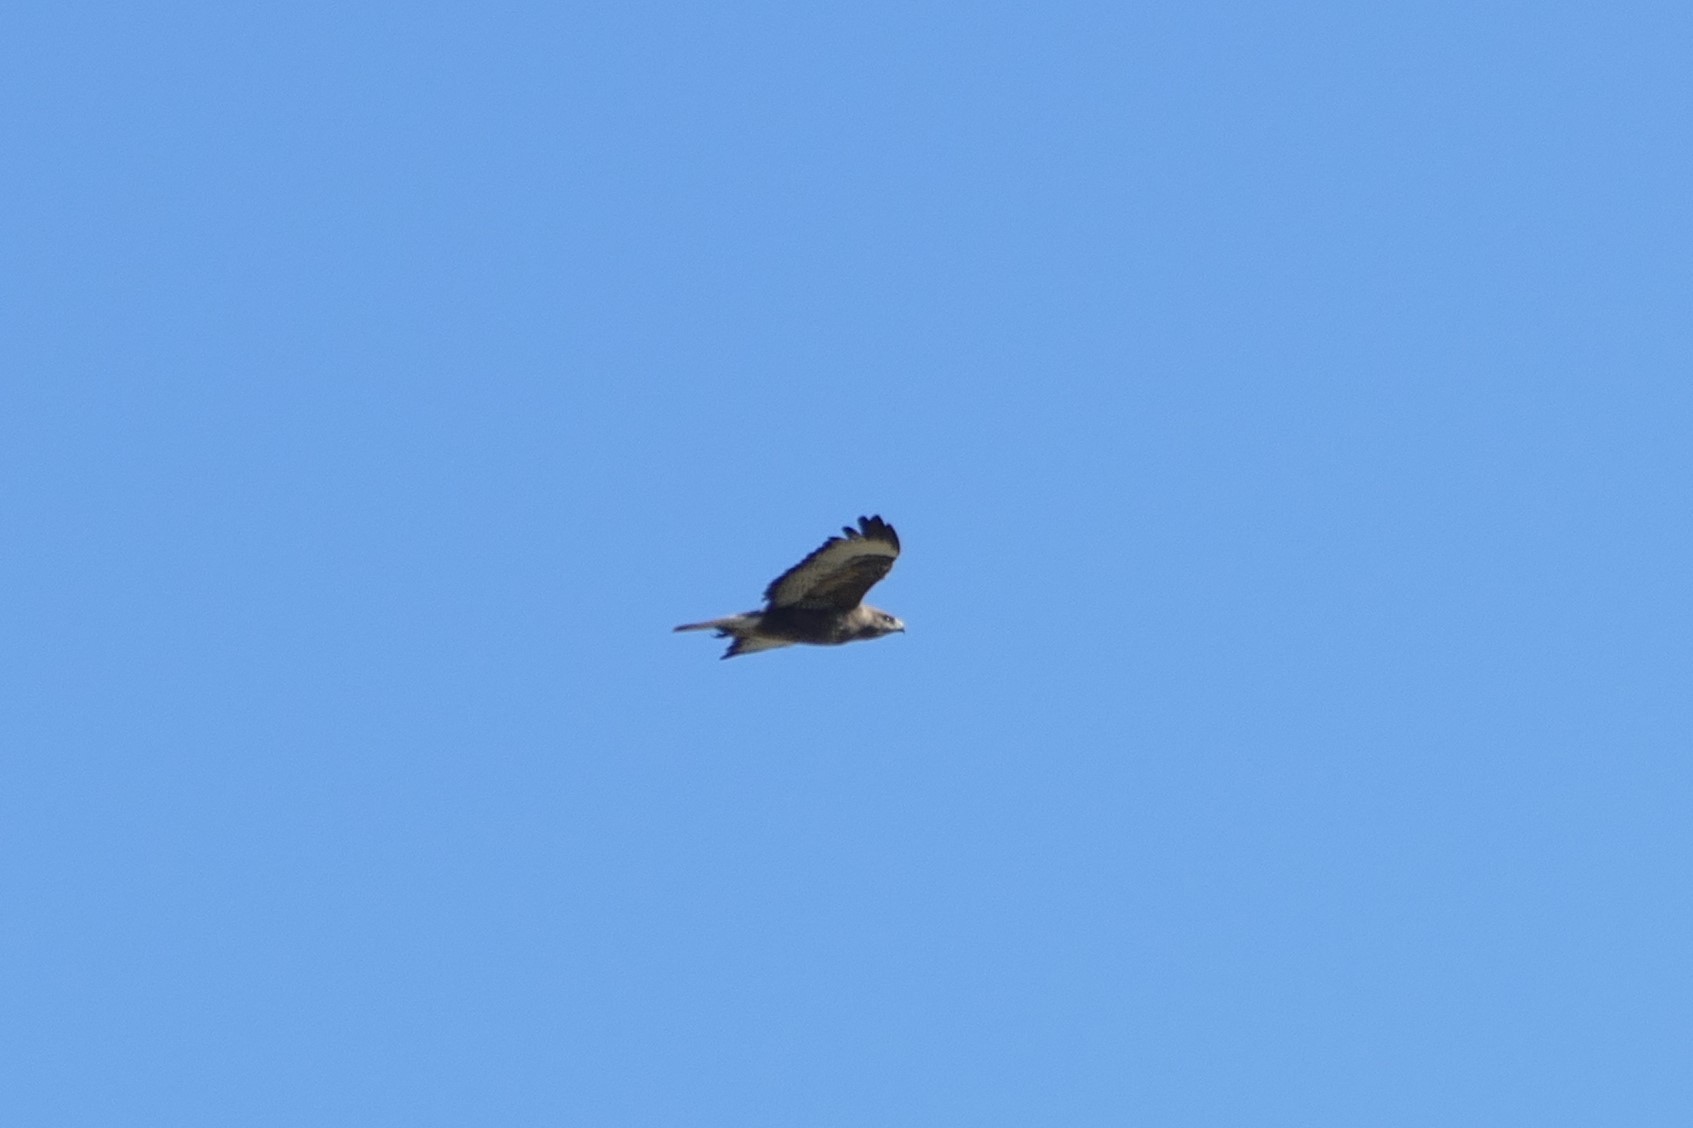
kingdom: Animalia
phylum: Chordata
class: Aves
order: Accipitriformes
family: Accipitridae
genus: Buteo
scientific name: Buteo buteo
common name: Common buzzard
